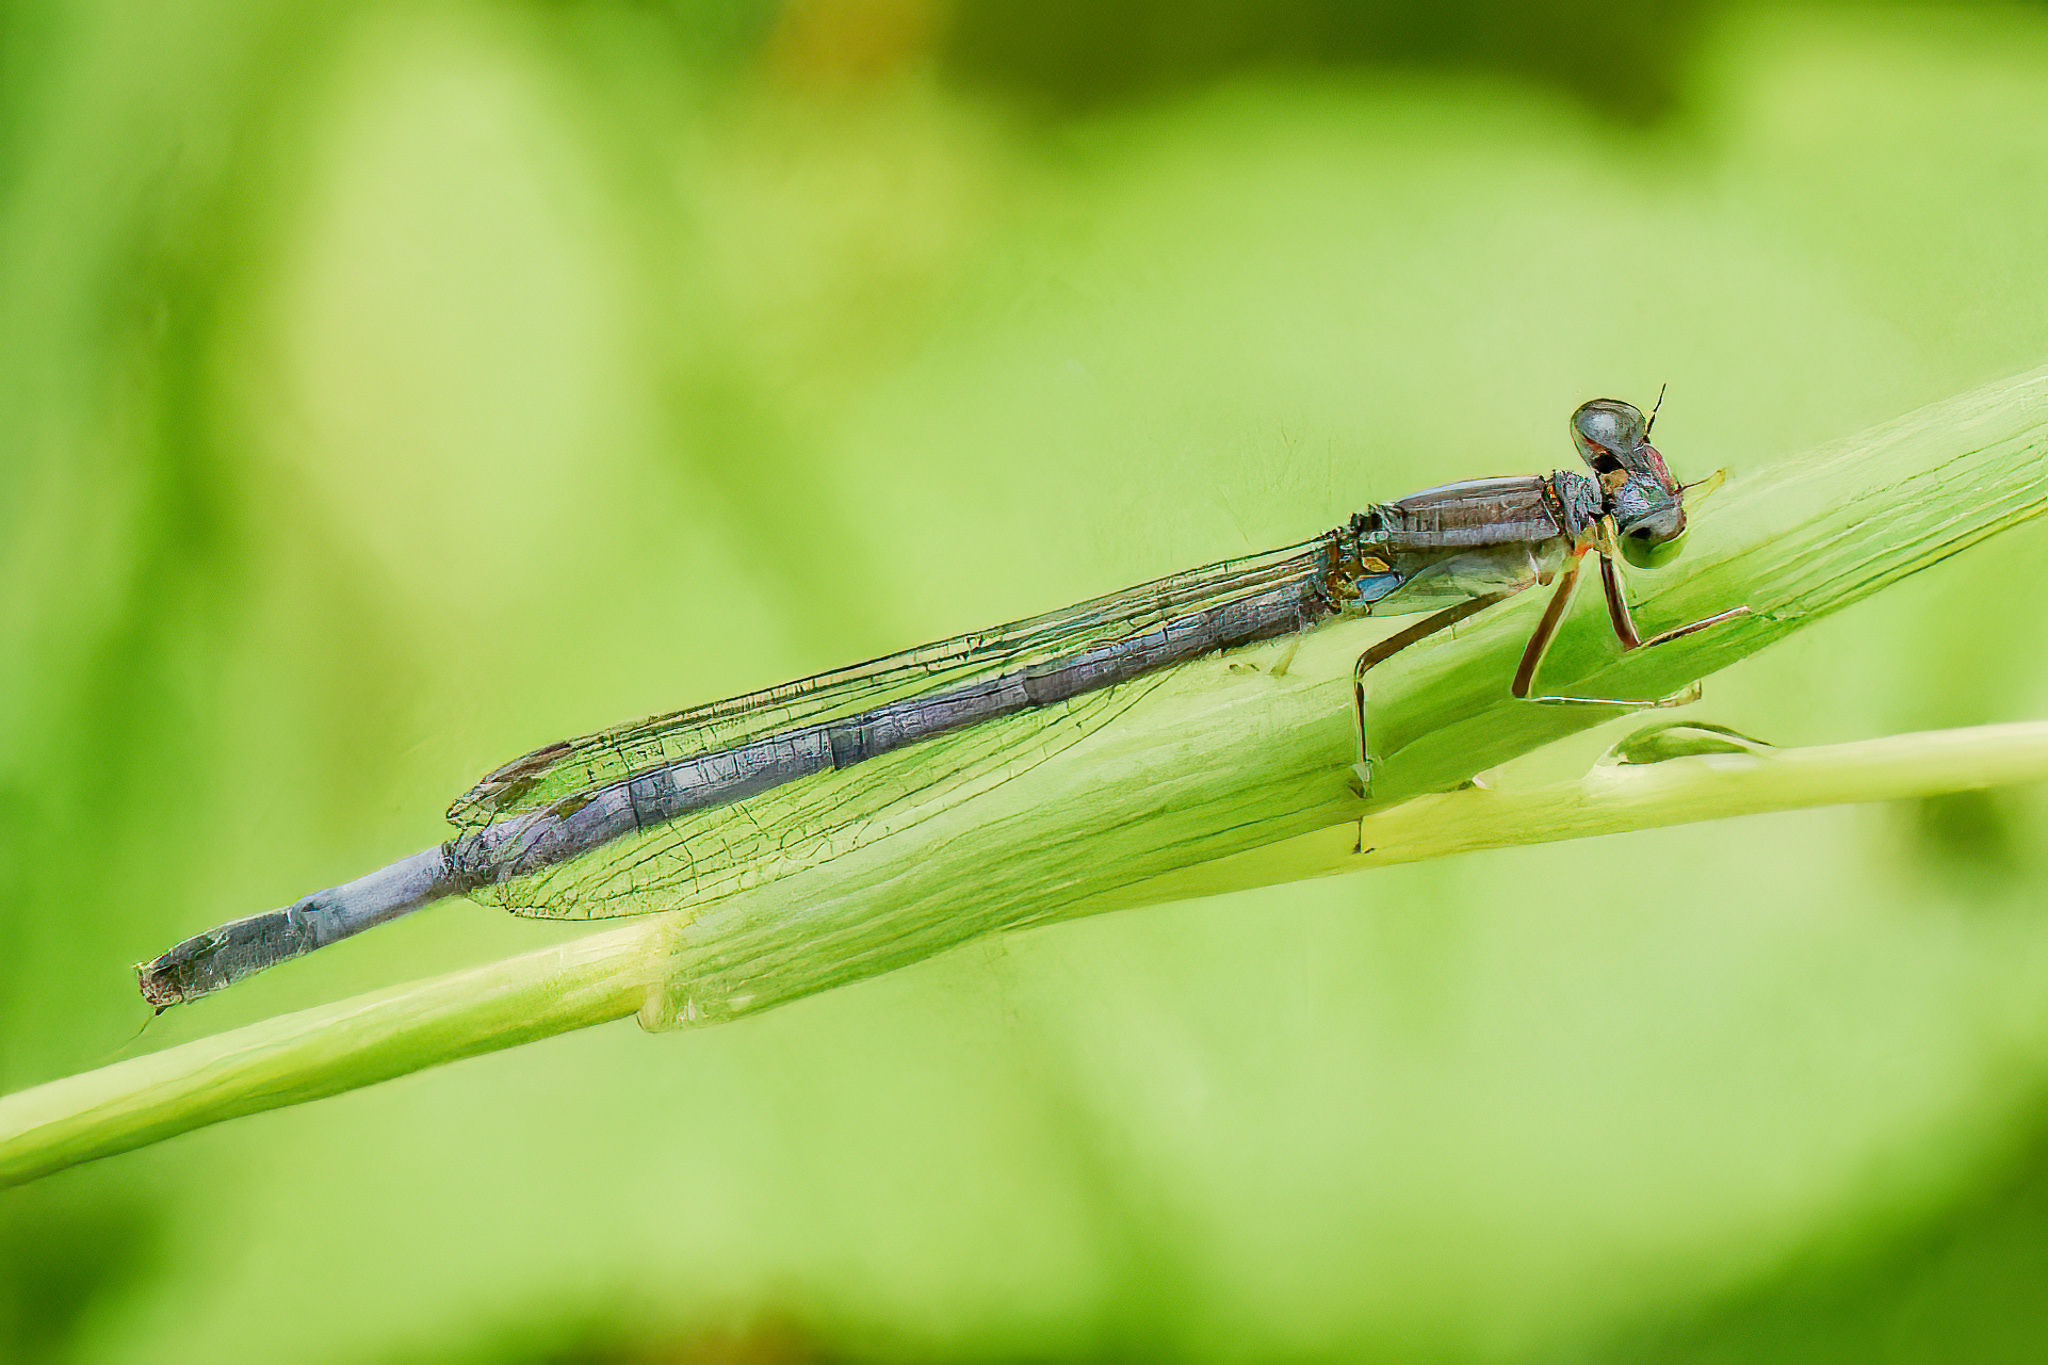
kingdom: Animalia
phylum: Arthropoda
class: Insecta
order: Odonata
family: Coenagrionidae
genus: Ischnura
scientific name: Ischnura verticalis
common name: Eastern forktail
